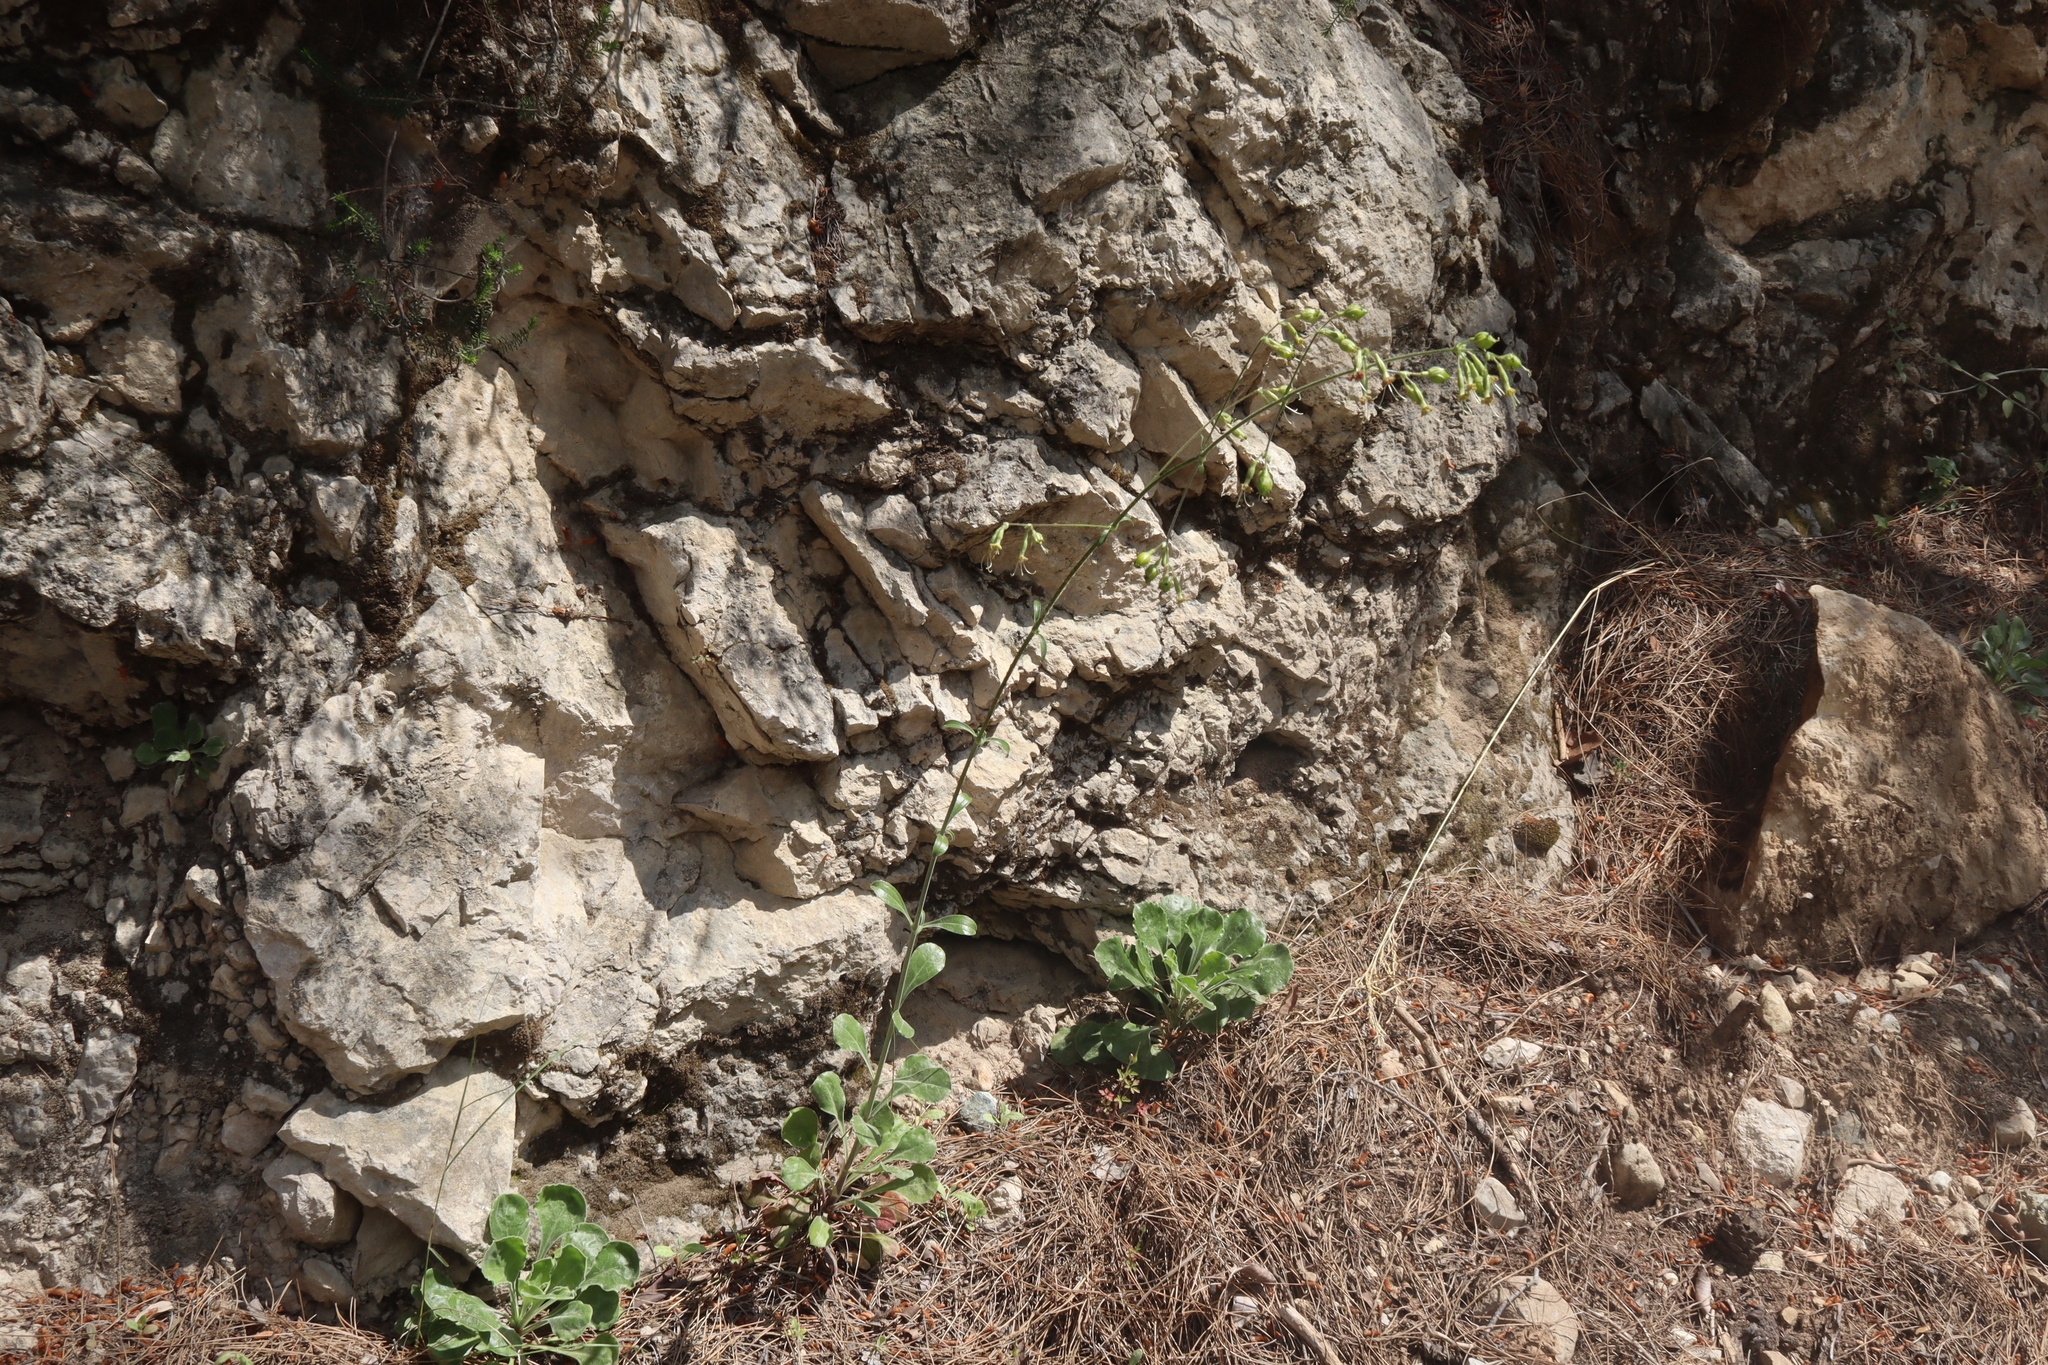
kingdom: Plantae
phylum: Tracheophyta
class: Magnoliopsida
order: Caryophyllales
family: Caryophyllaceae
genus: Silene
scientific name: Silene gigantea
